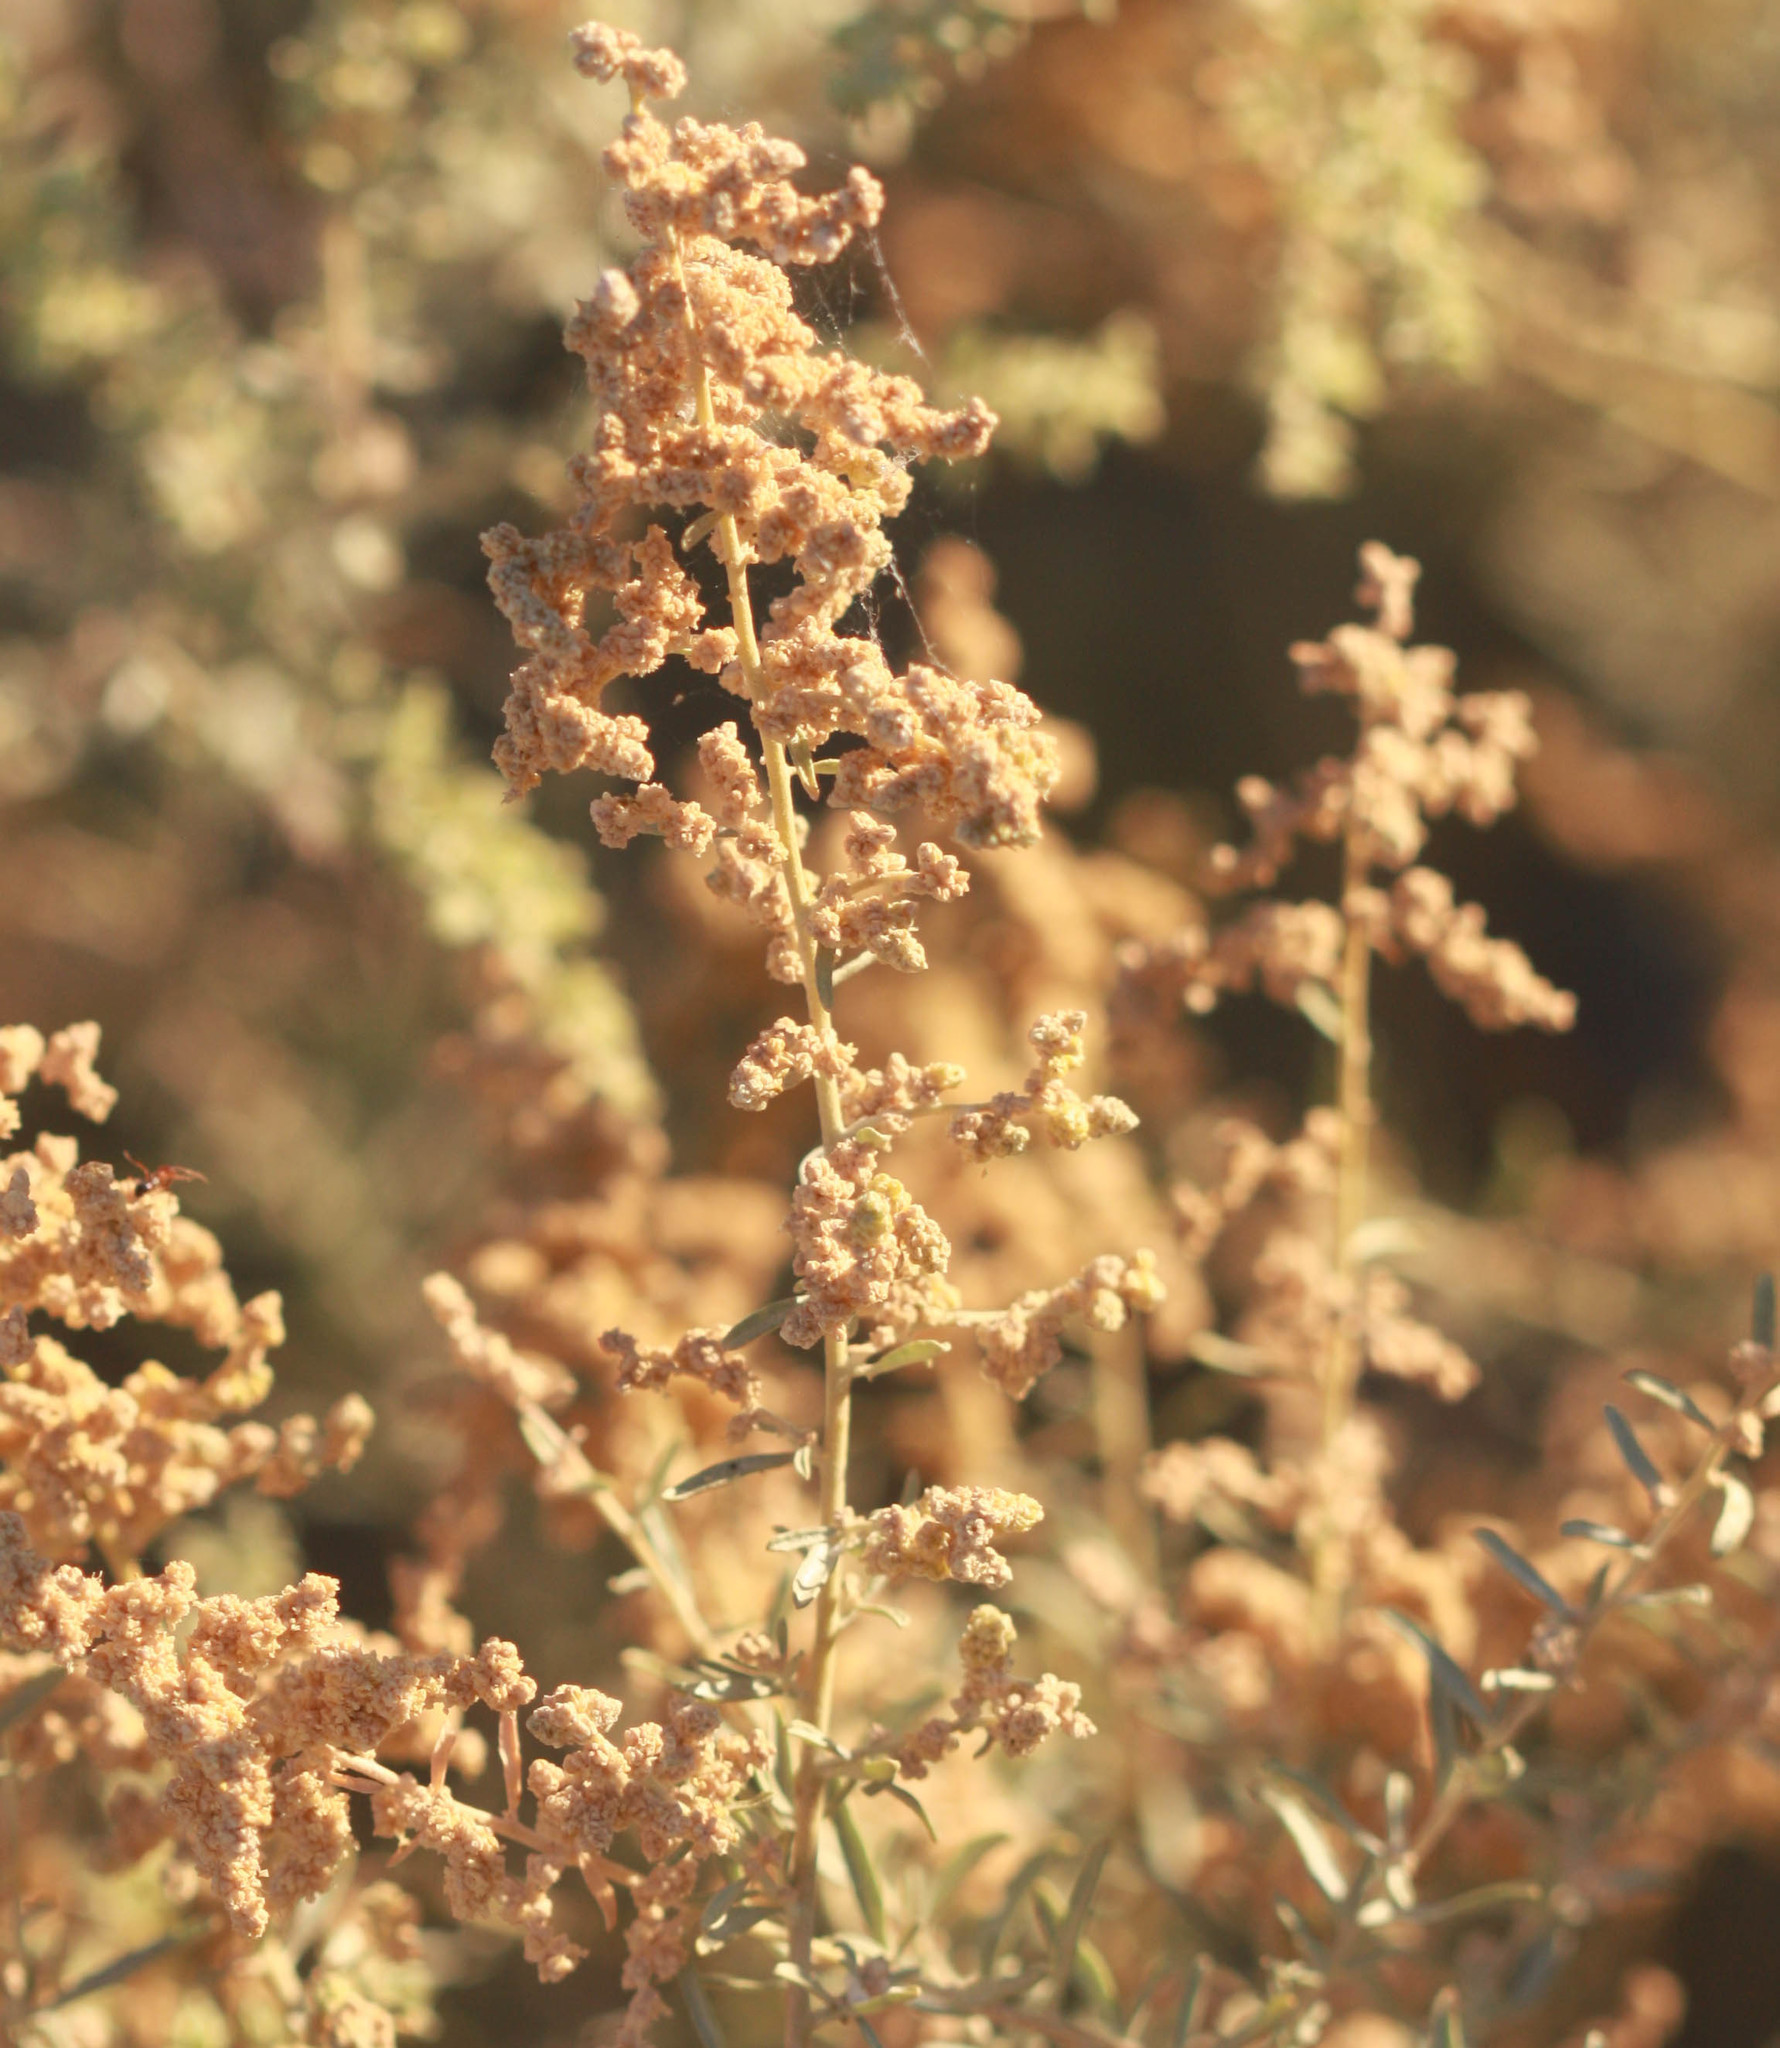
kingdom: Plantae
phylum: Tracheophyta
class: Magnoliopsida
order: Caryophyllales
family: Amaranthaceae
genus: Atriplex
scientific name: Atriplex canescens
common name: Four-wing saltbush
